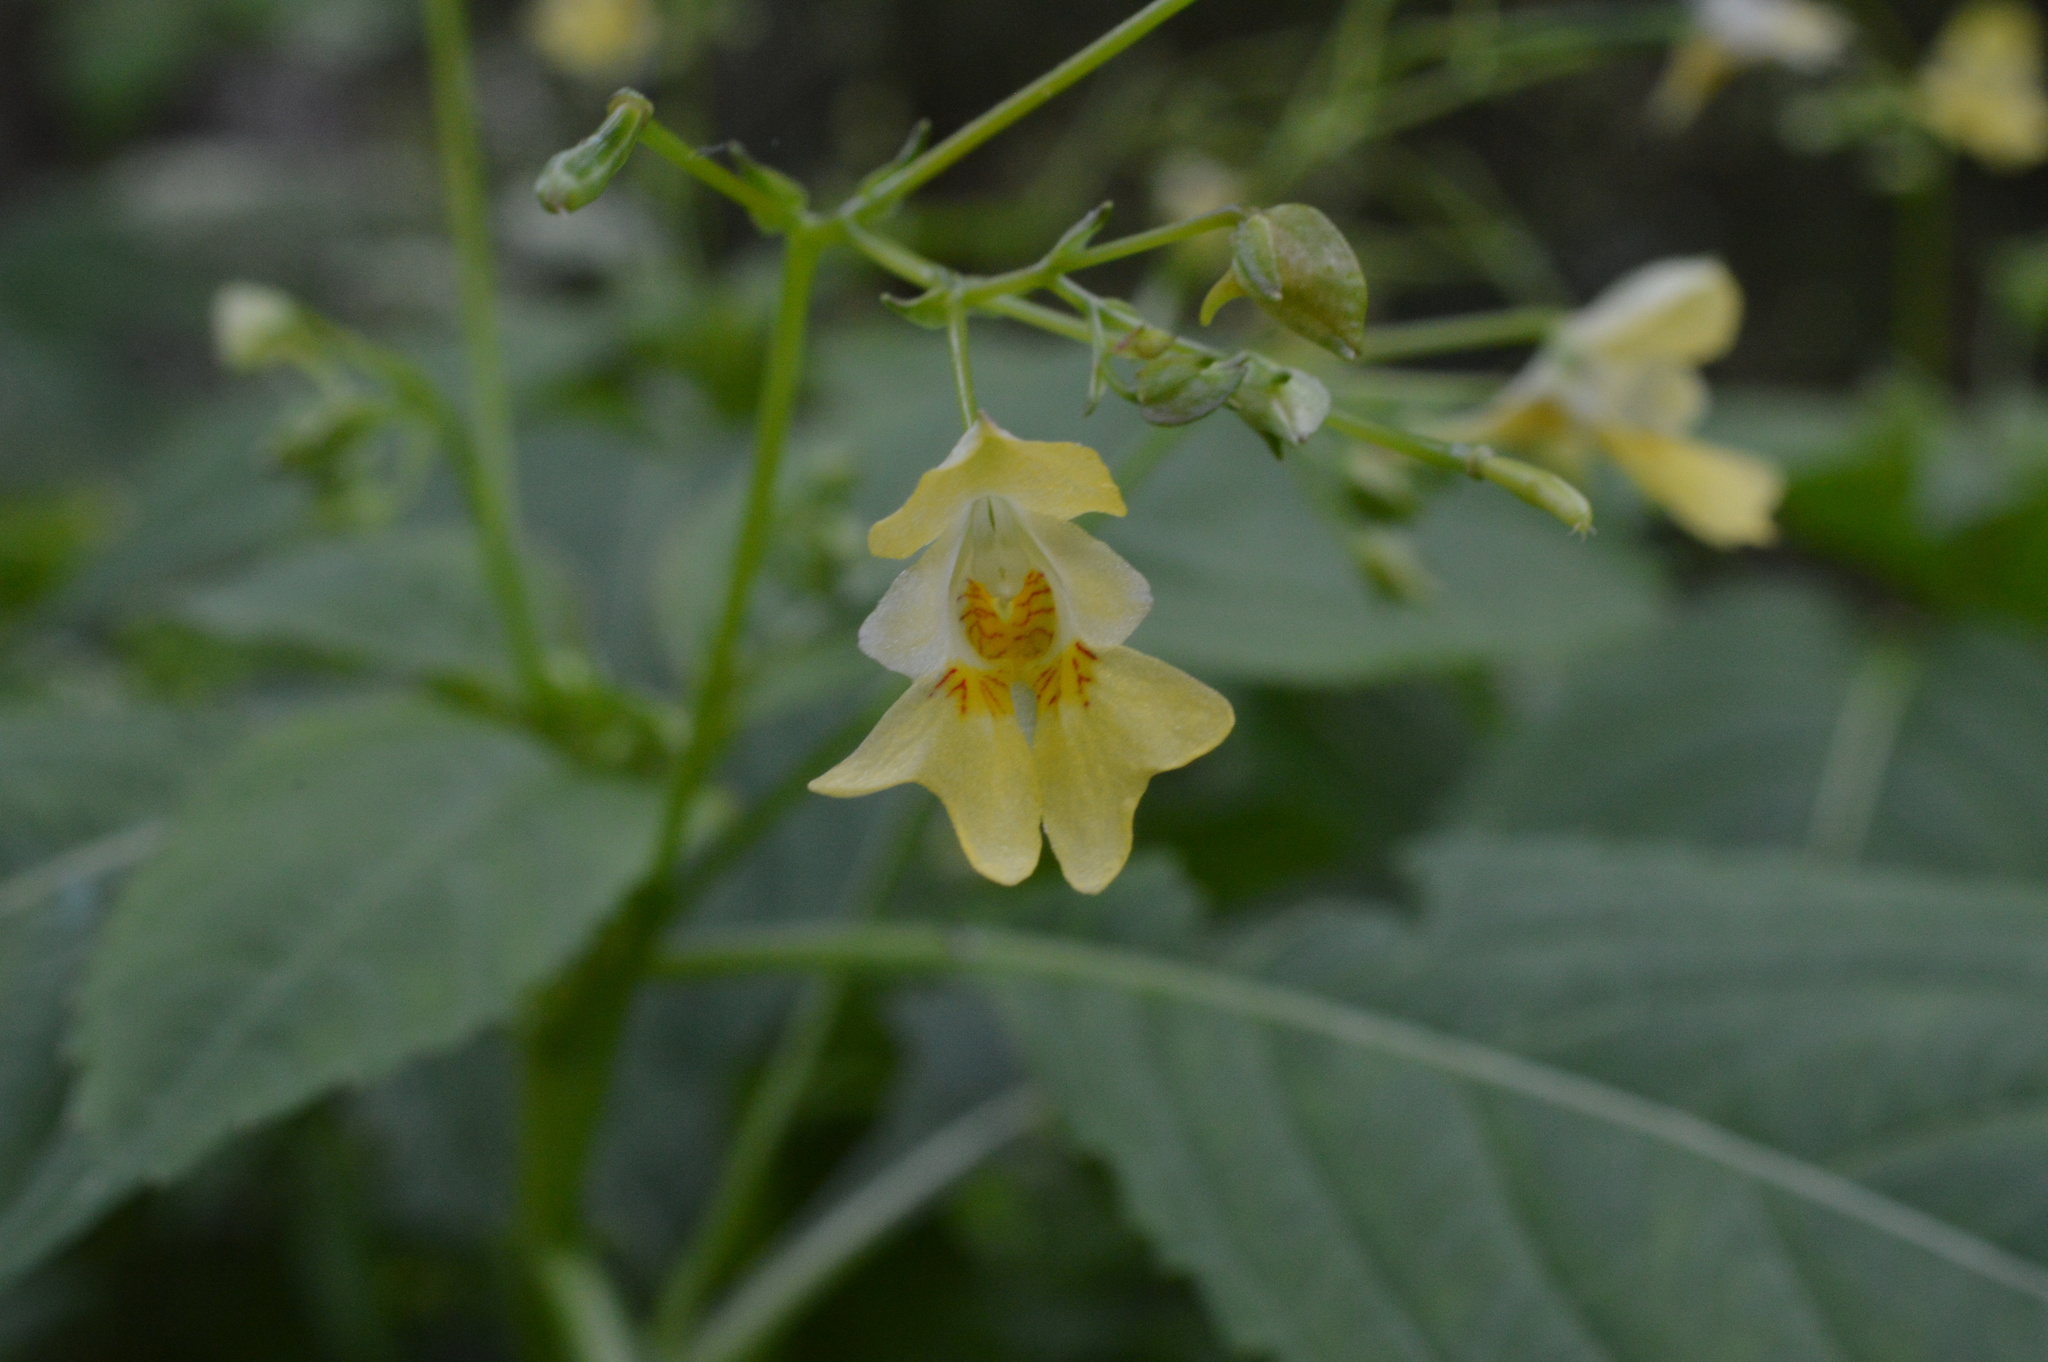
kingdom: Plantae
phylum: Tracheophyta
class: Magnoliopsida
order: Ericales
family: Balsaminaceae
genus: Impatiens
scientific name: Impatiens parviflora
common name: Small balsam
